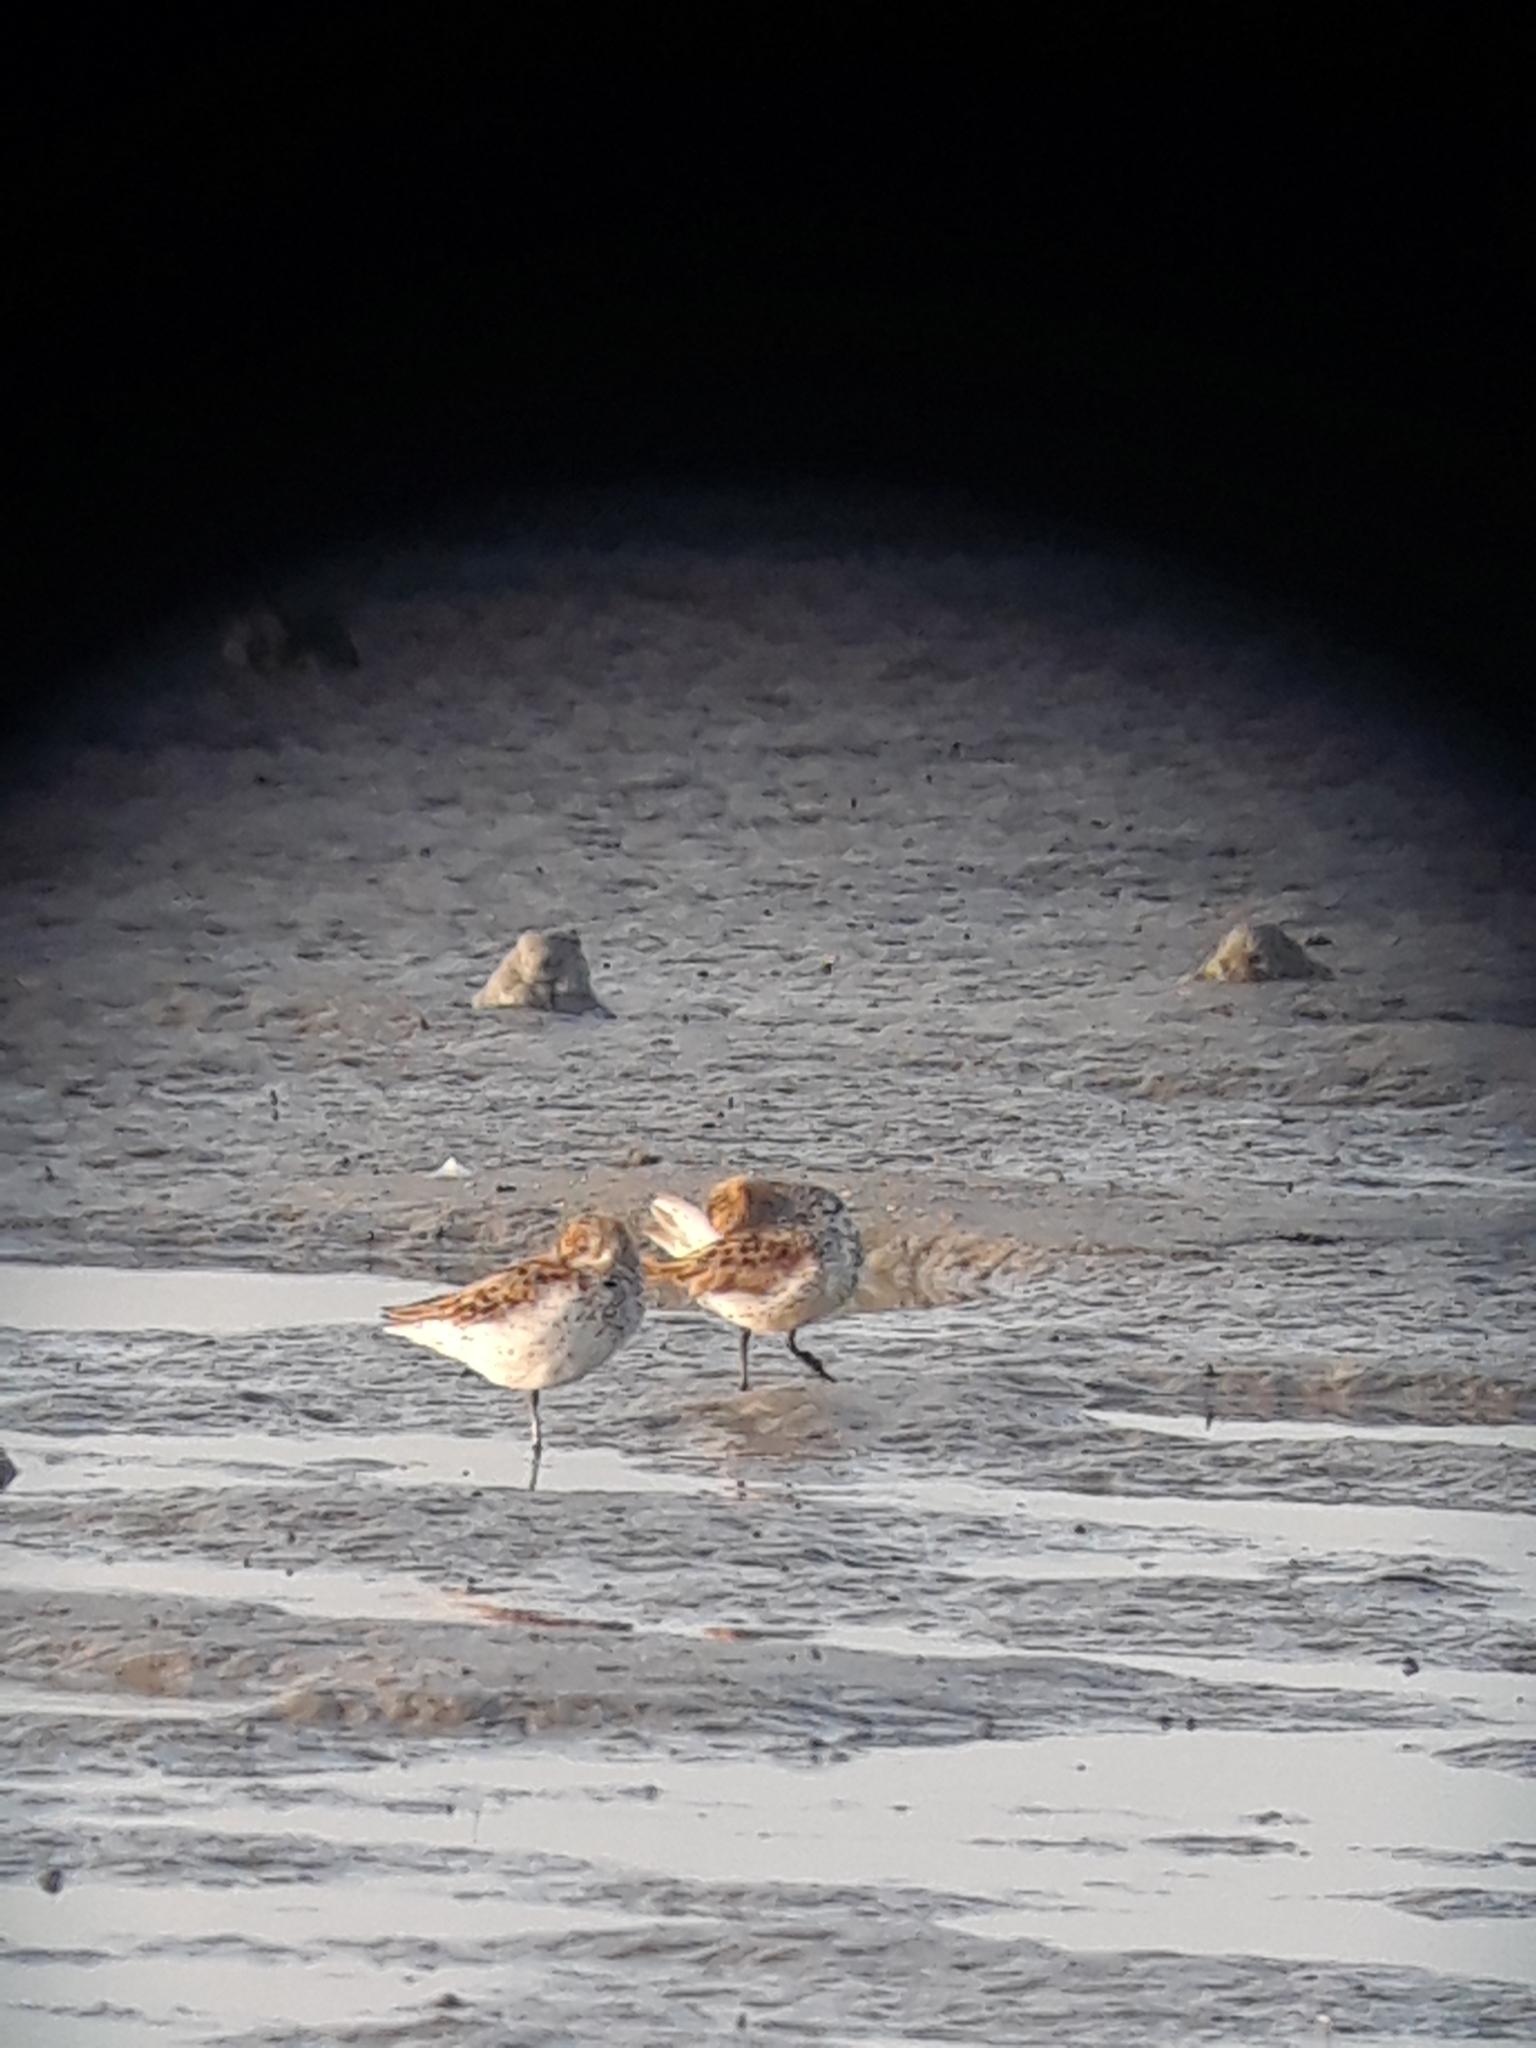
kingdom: Animalia
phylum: Chordata
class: Aves
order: Charadriiformes
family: Scolopacidae
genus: Calidris
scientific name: Calidris mauri
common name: Western sandpiper
